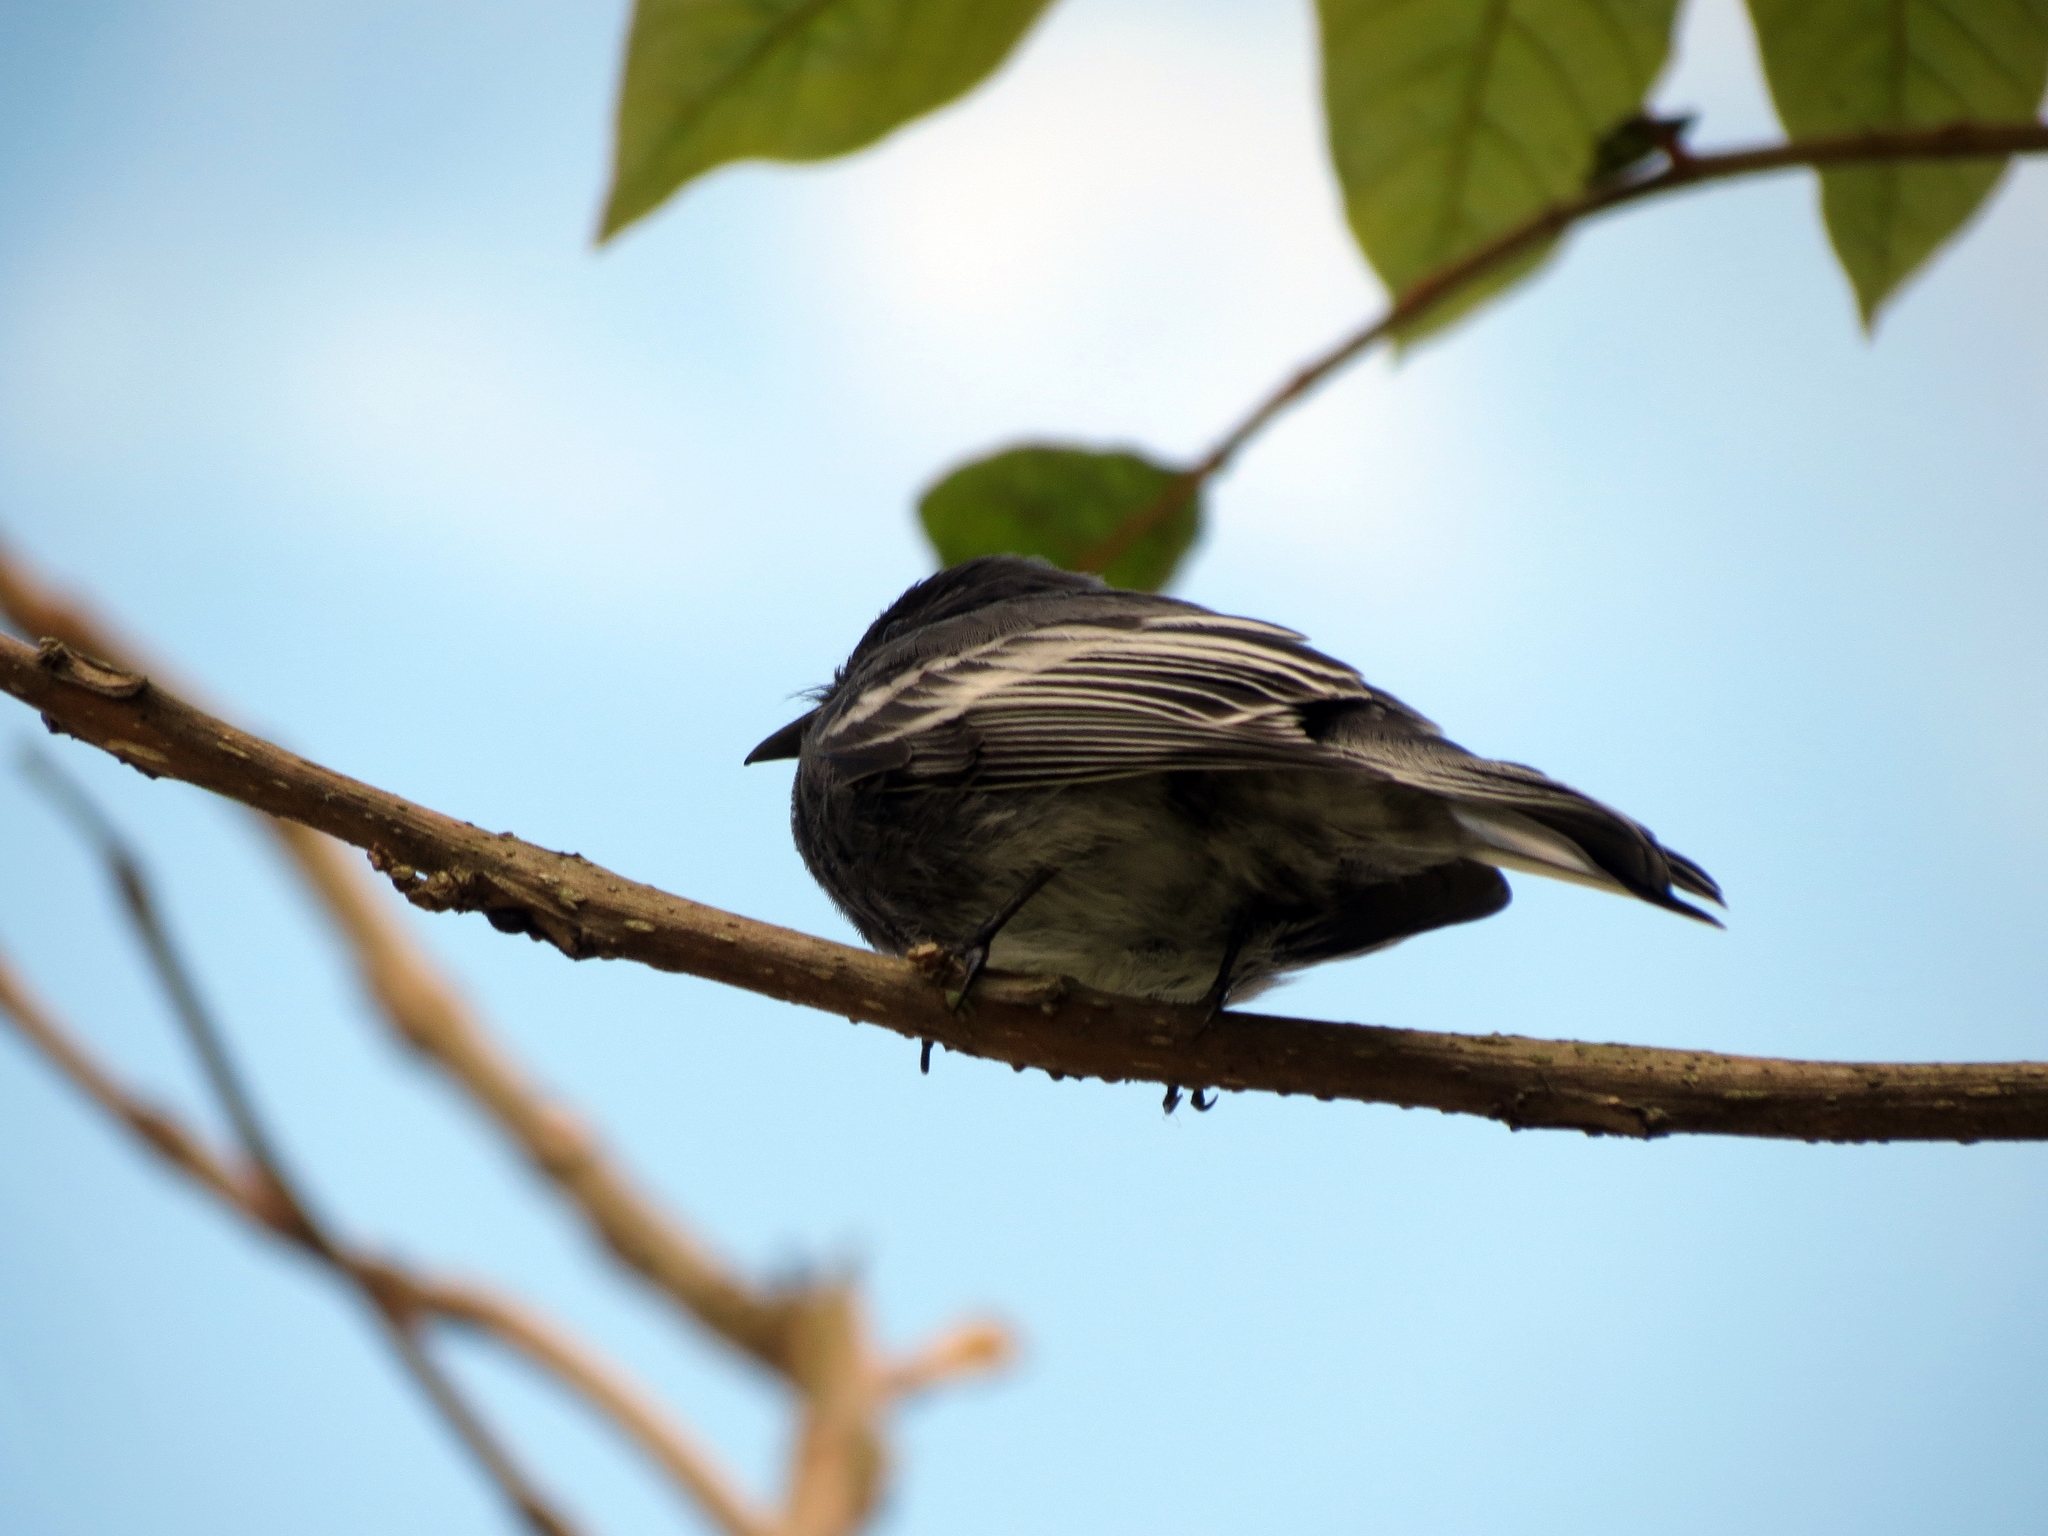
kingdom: Animalia
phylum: Chordata
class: Aves
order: Passeriformes
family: Tyrannidae
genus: Sayornis
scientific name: Sayornis nigricans
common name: Black phoebe
